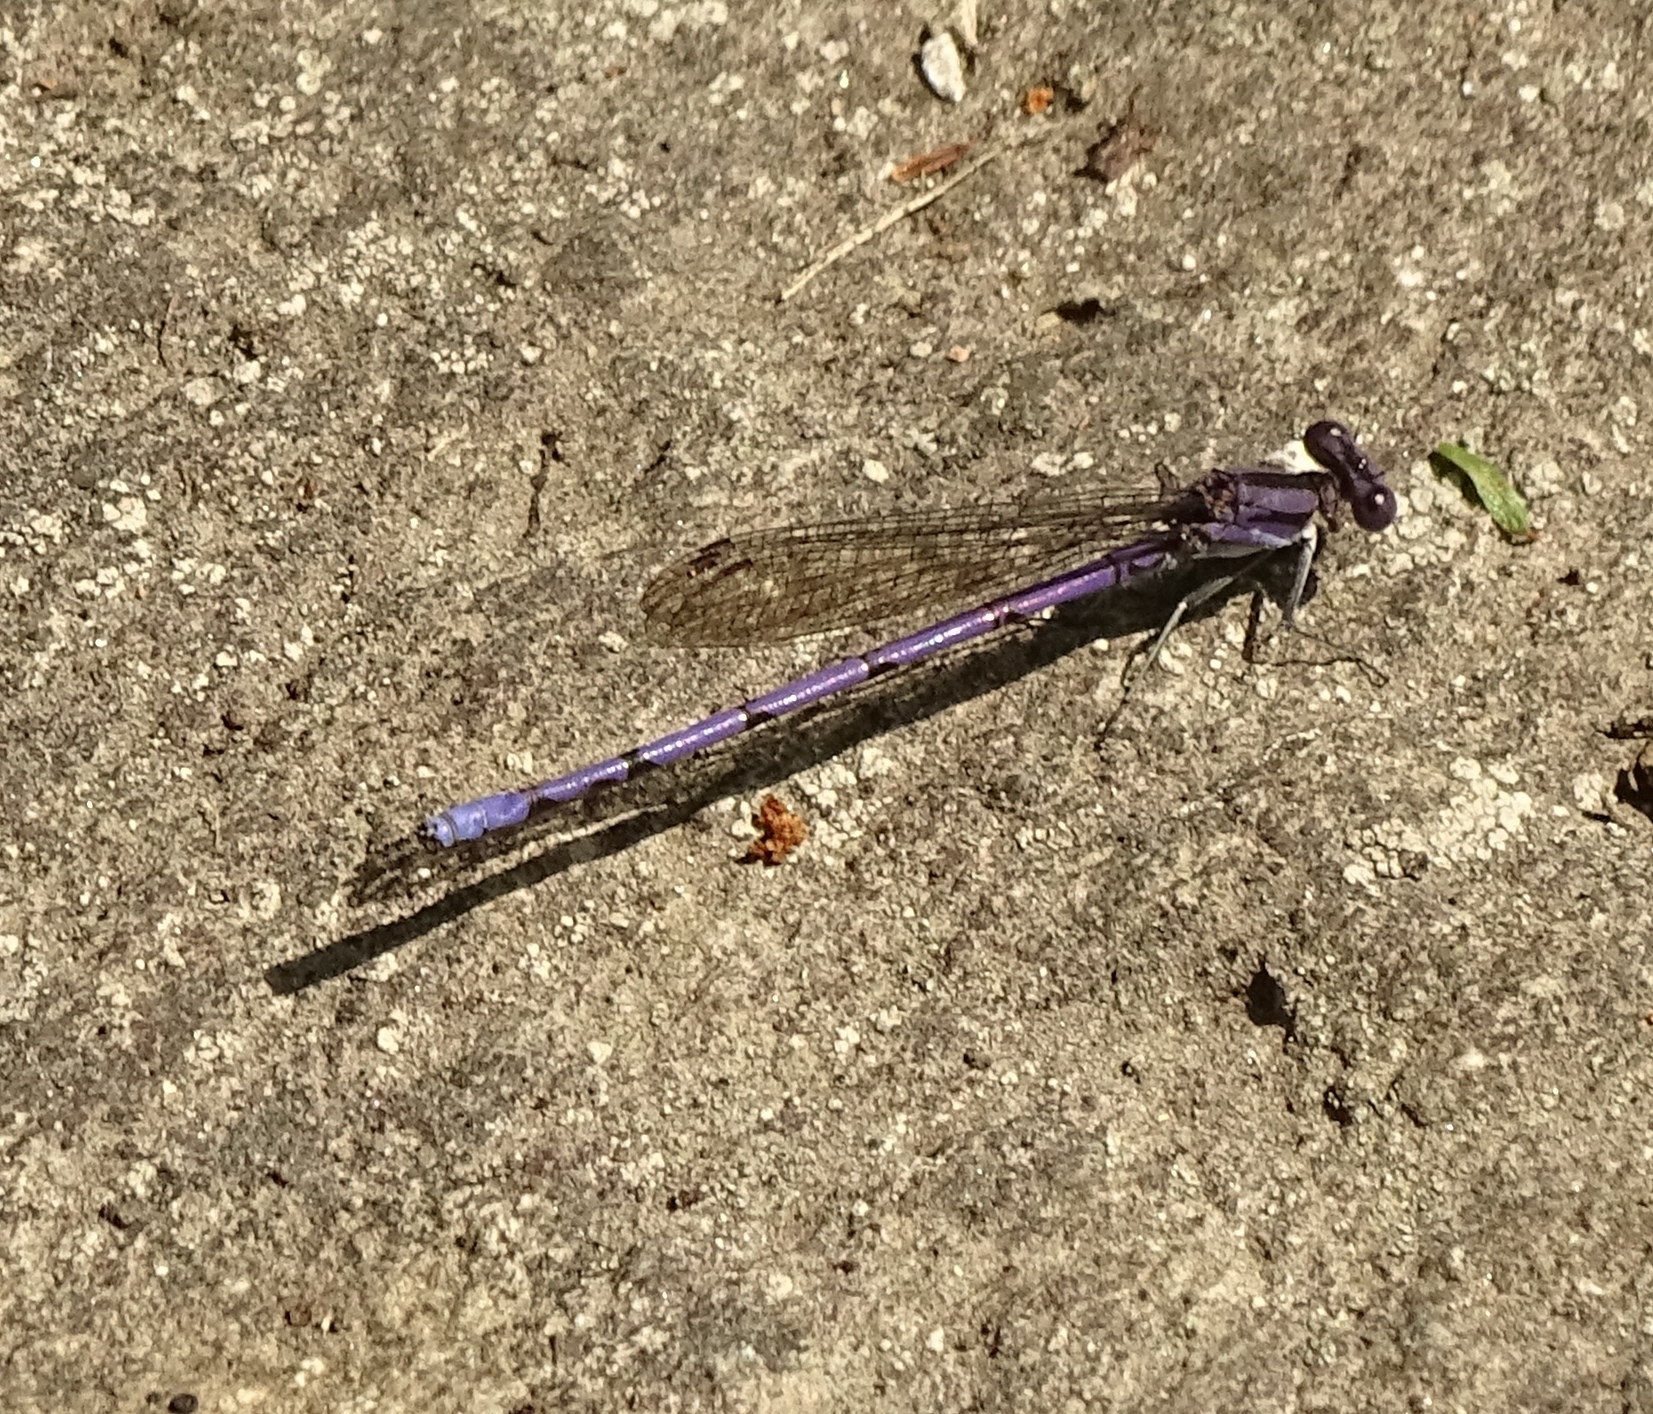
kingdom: Animalia
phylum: Arthropoda
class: Insecta
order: Odonata
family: Coenagrionidae
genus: Argia
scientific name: Argia fumipennis
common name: Variable dancer
